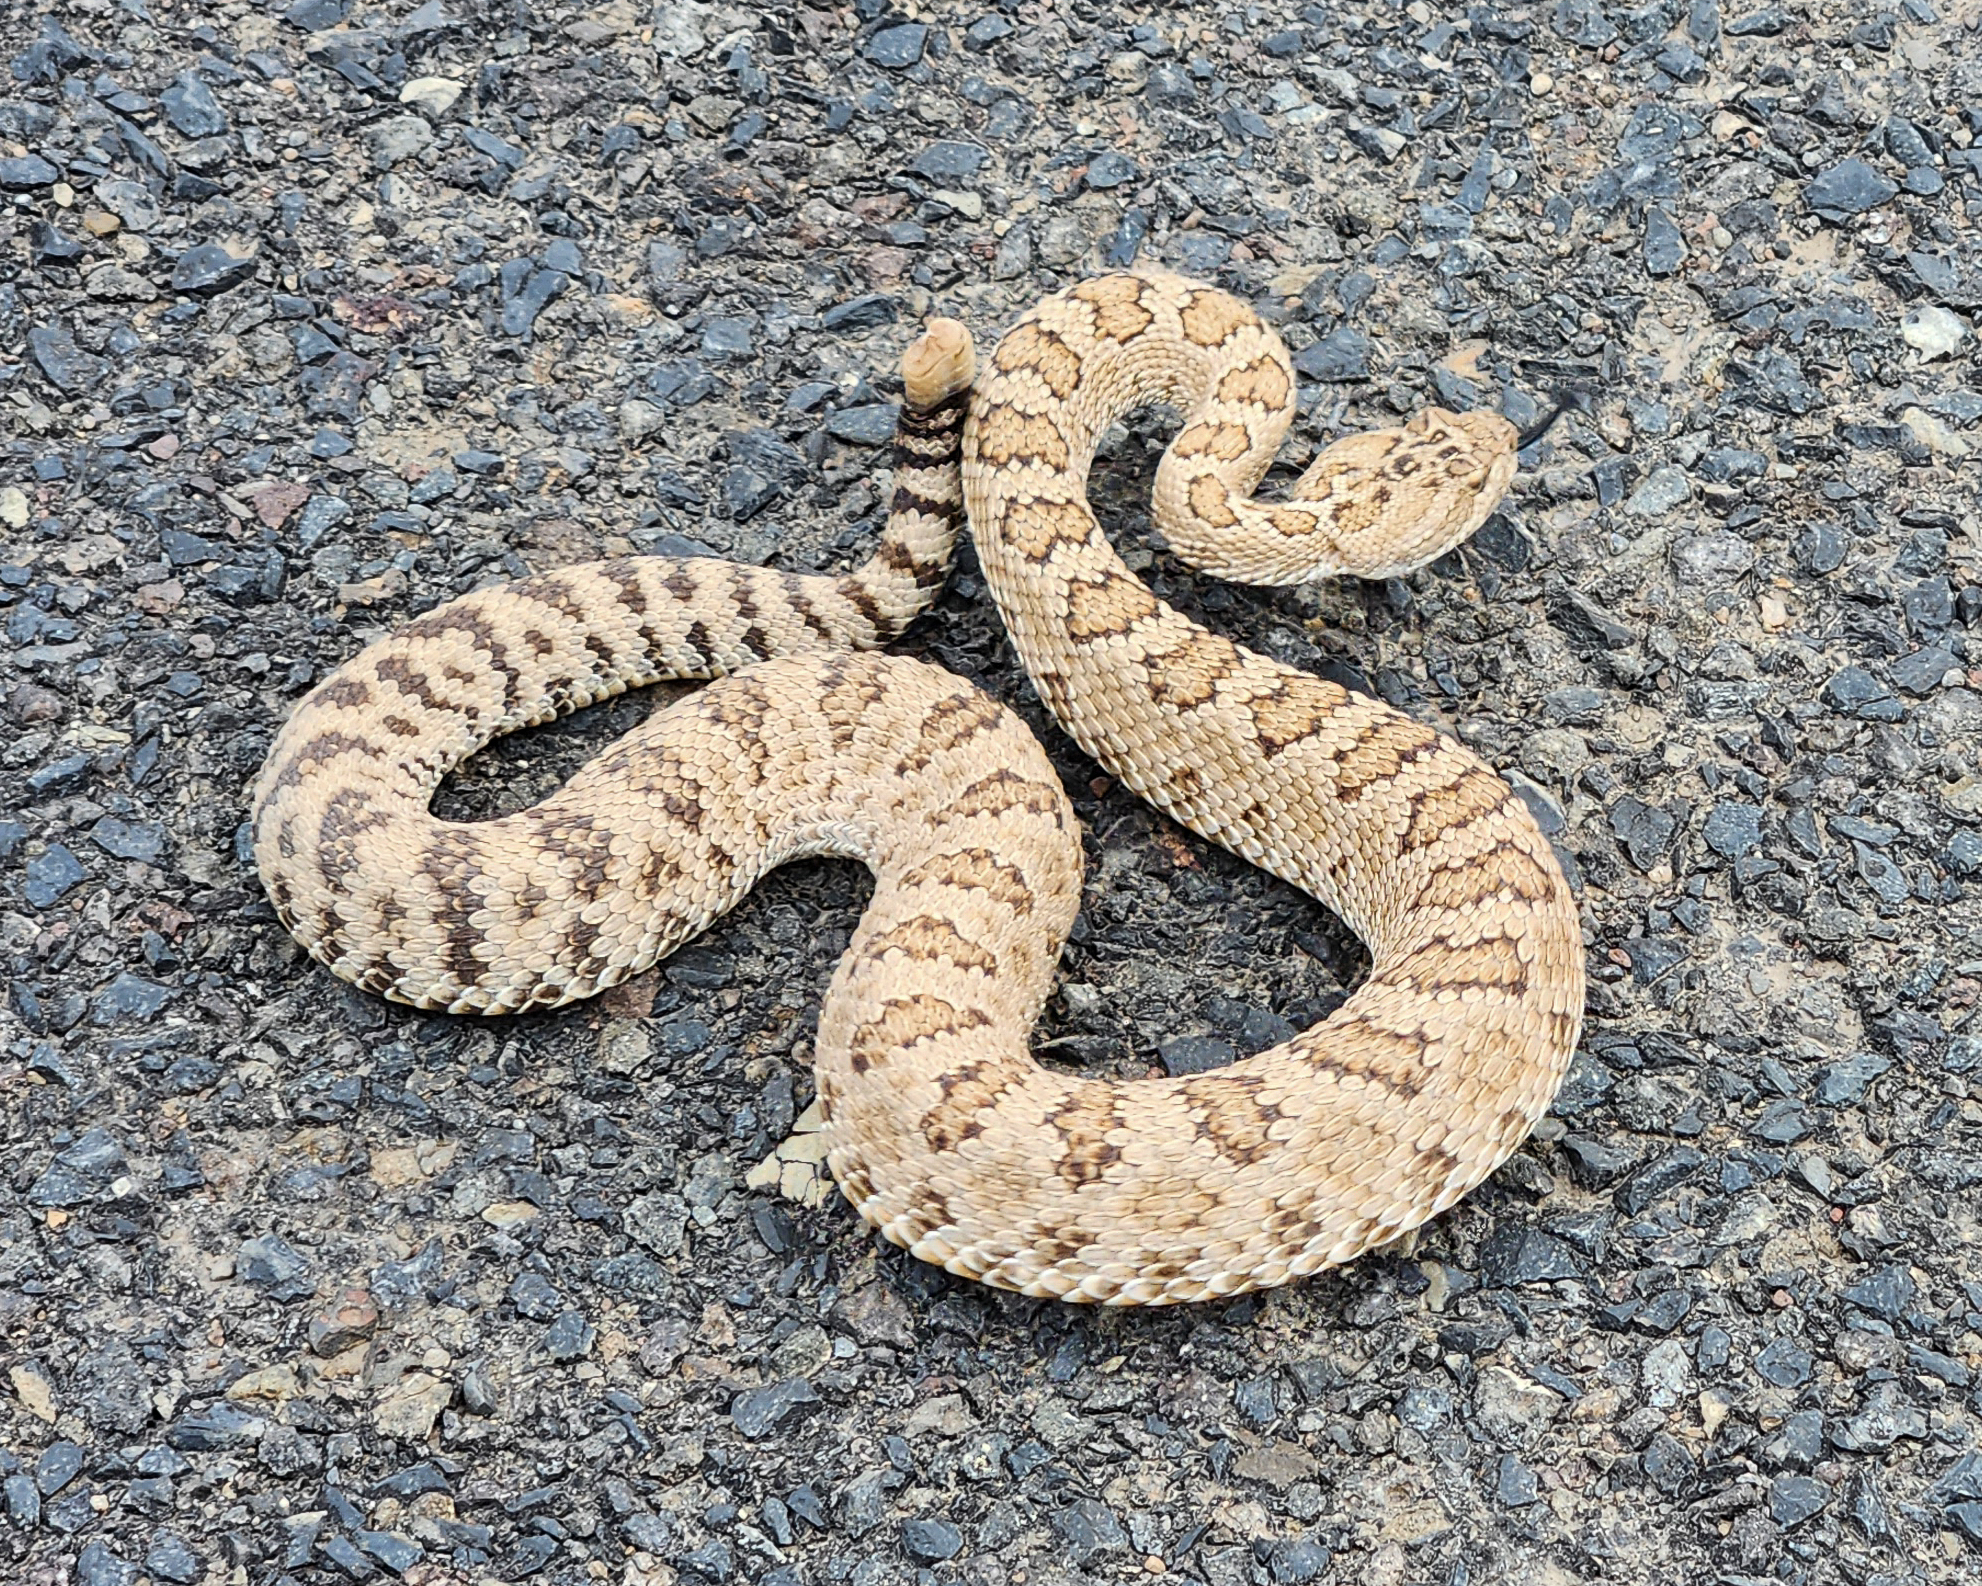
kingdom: Animalia
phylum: Chordata
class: Squamata
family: Viperidae
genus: Crotalus
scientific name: Crotalus oreganus
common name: Abyssus
